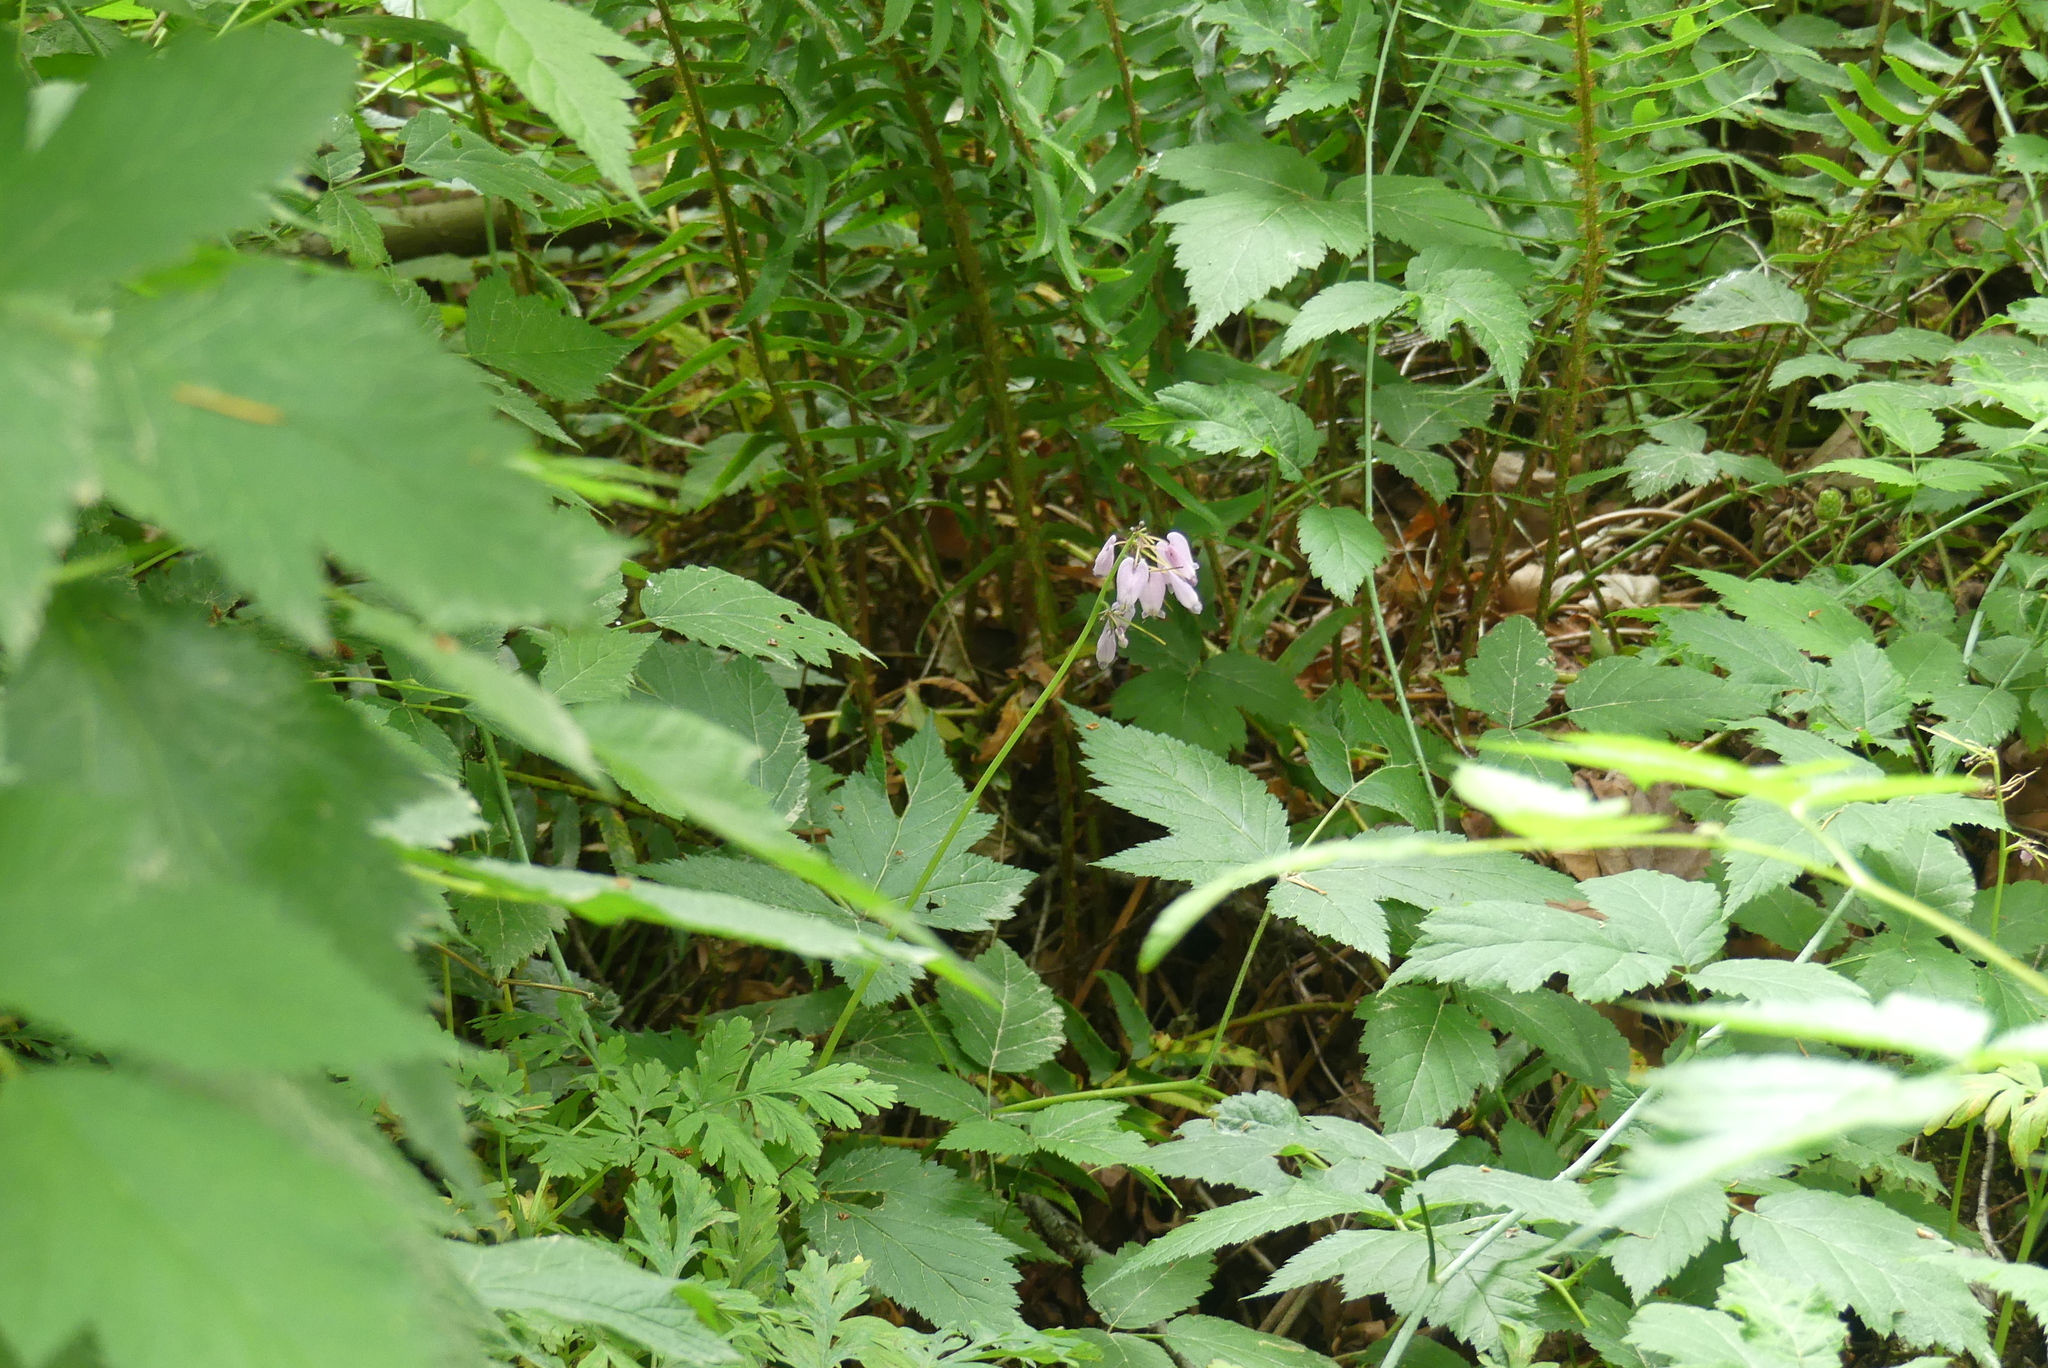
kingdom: Plantae
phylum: Tracheophyta
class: Magnoliopsida
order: Ranunculales
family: Papaveraceae
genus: Dicentra
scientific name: Dicentra formosa
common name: Bleeding-heart
